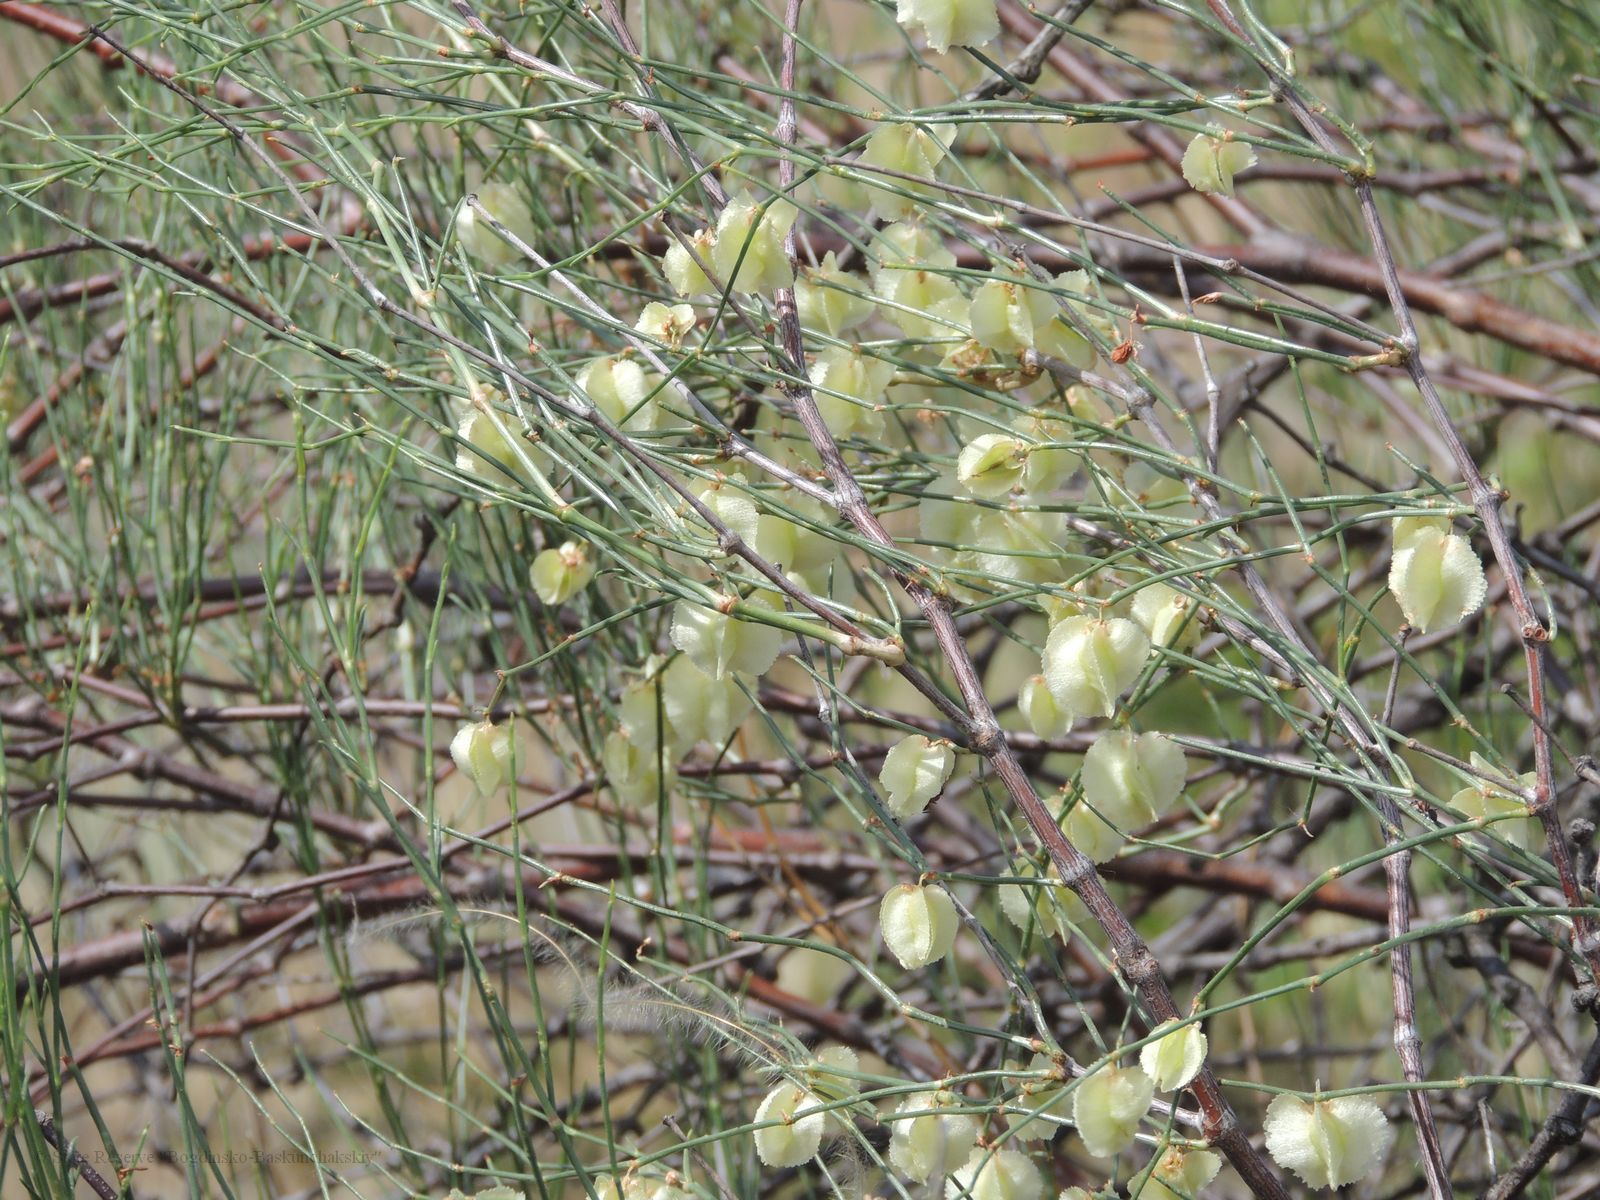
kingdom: Plantae
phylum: Tracheophyta
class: Magnoliopsida
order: Caryophyllales
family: Polygonaceae
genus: Calligonum
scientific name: Calligonum aphyllum
